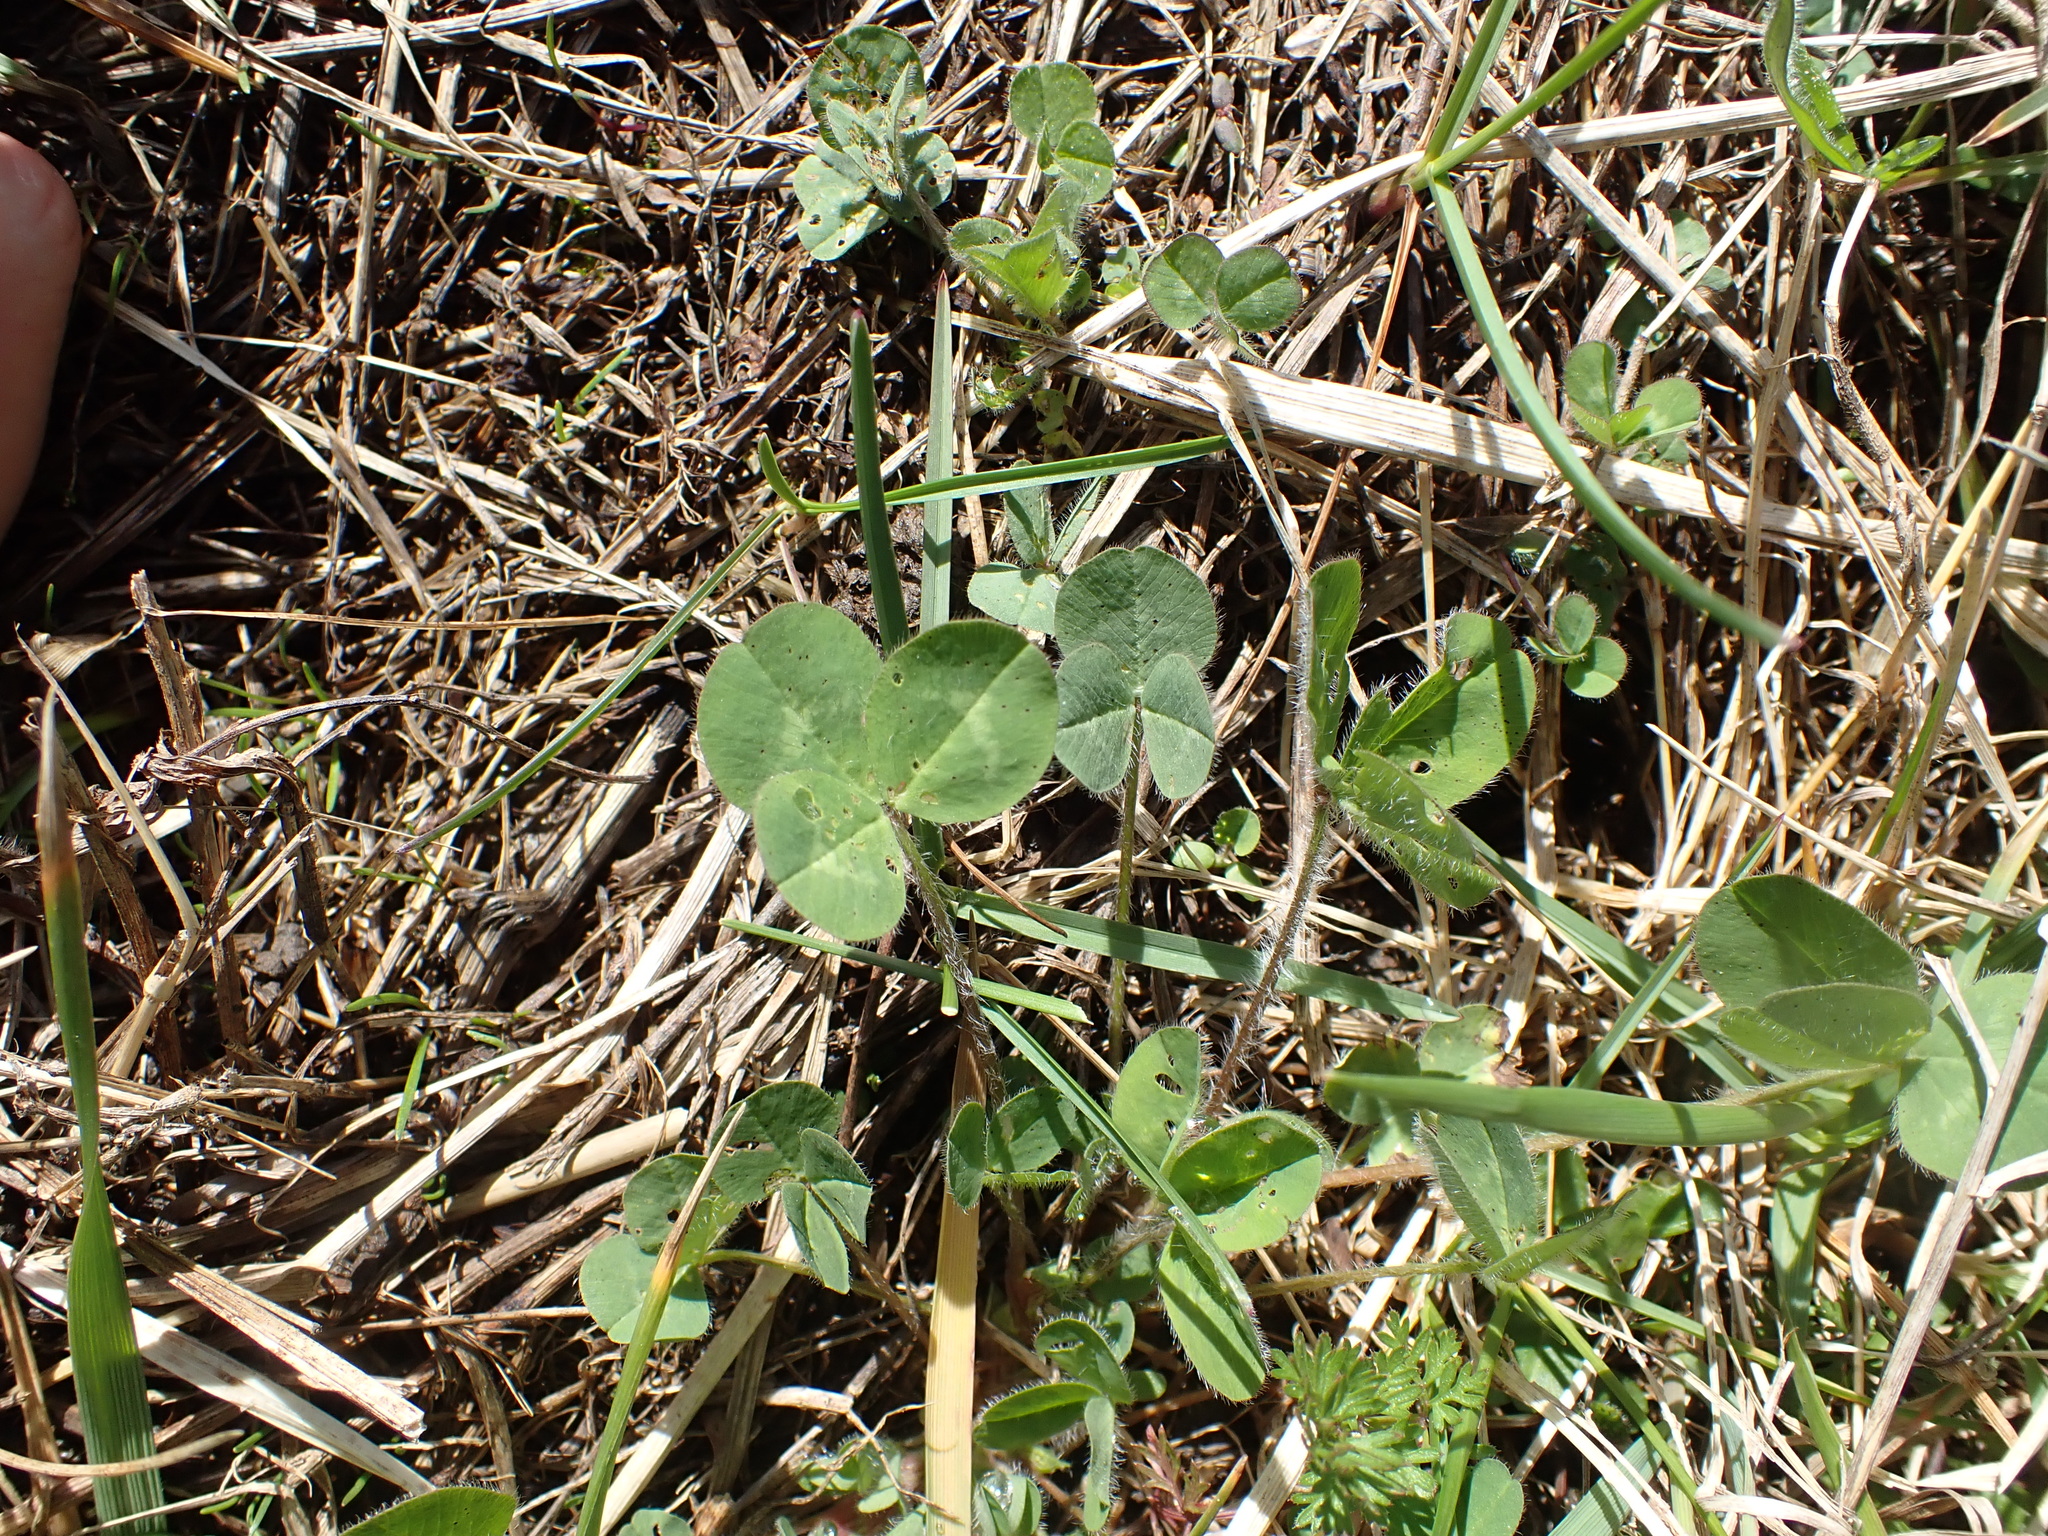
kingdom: Plantae
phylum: Tracheophyta
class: Magnoliopsida
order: Fabales
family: Fabaceae
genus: Trifolium
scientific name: Trifolium pratense
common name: Red clover
